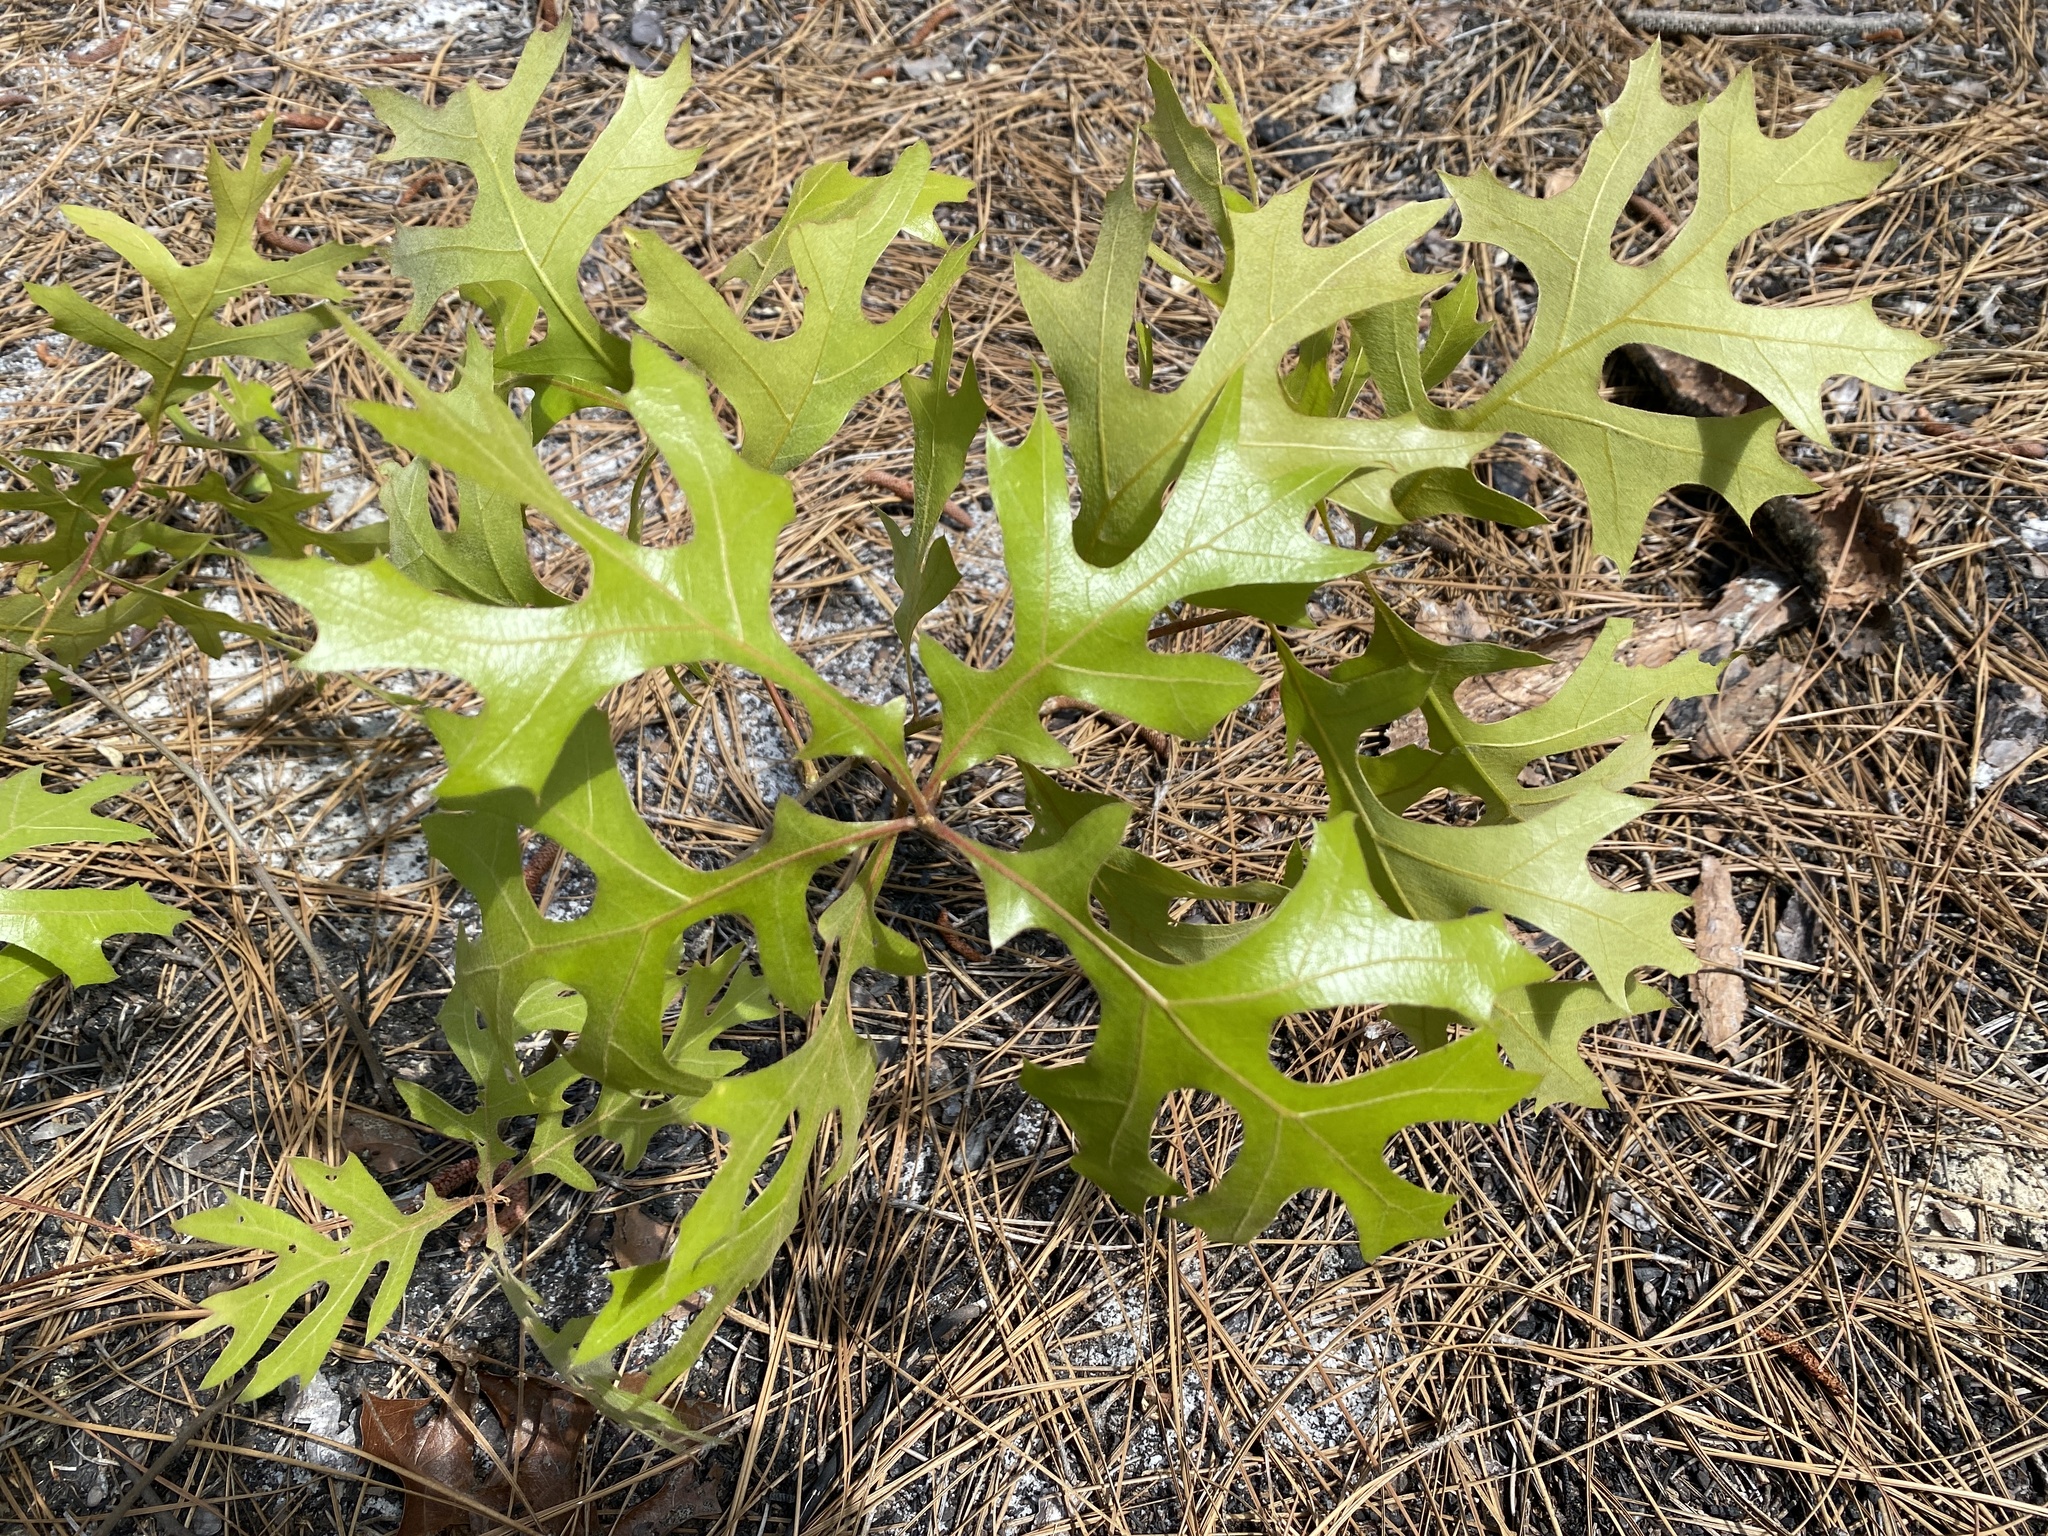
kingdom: Plantae
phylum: Tracheophyta
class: Magnoliopsida
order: Fagales
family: Fagaceae
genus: Quercus
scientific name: Quercus laevis
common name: Turkey oak
